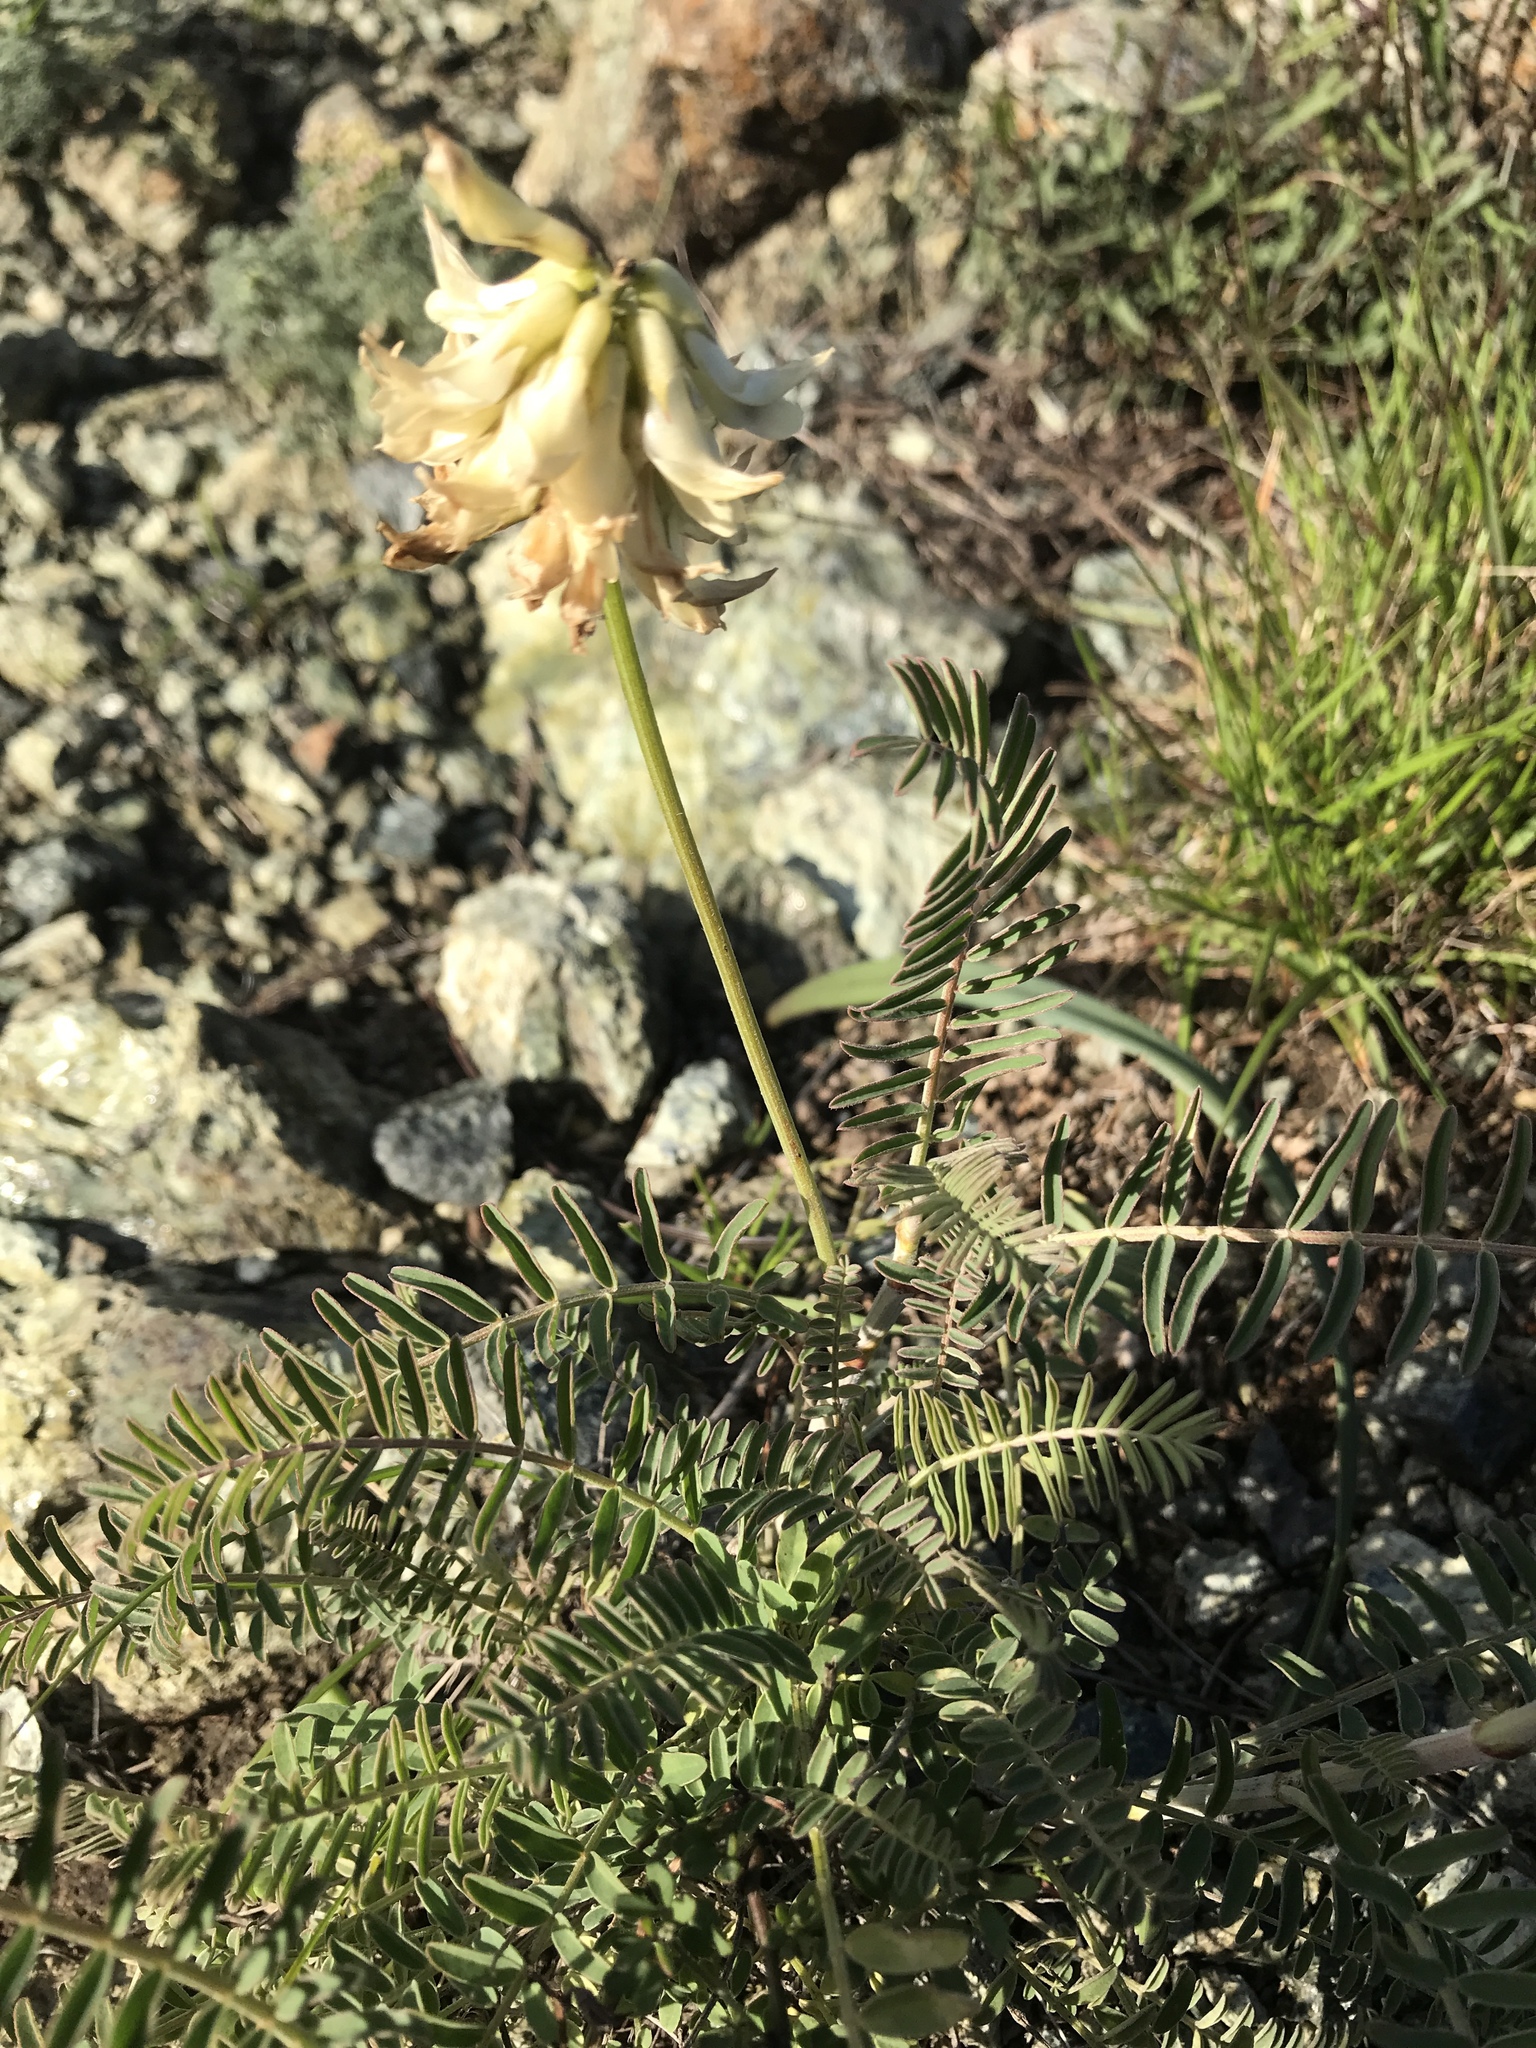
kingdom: Plantae
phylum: Tracheophyta
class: Magnoliopsida
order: Fabales
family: Fabaceae
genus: Astragalus
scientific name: Astragalus curtipes
